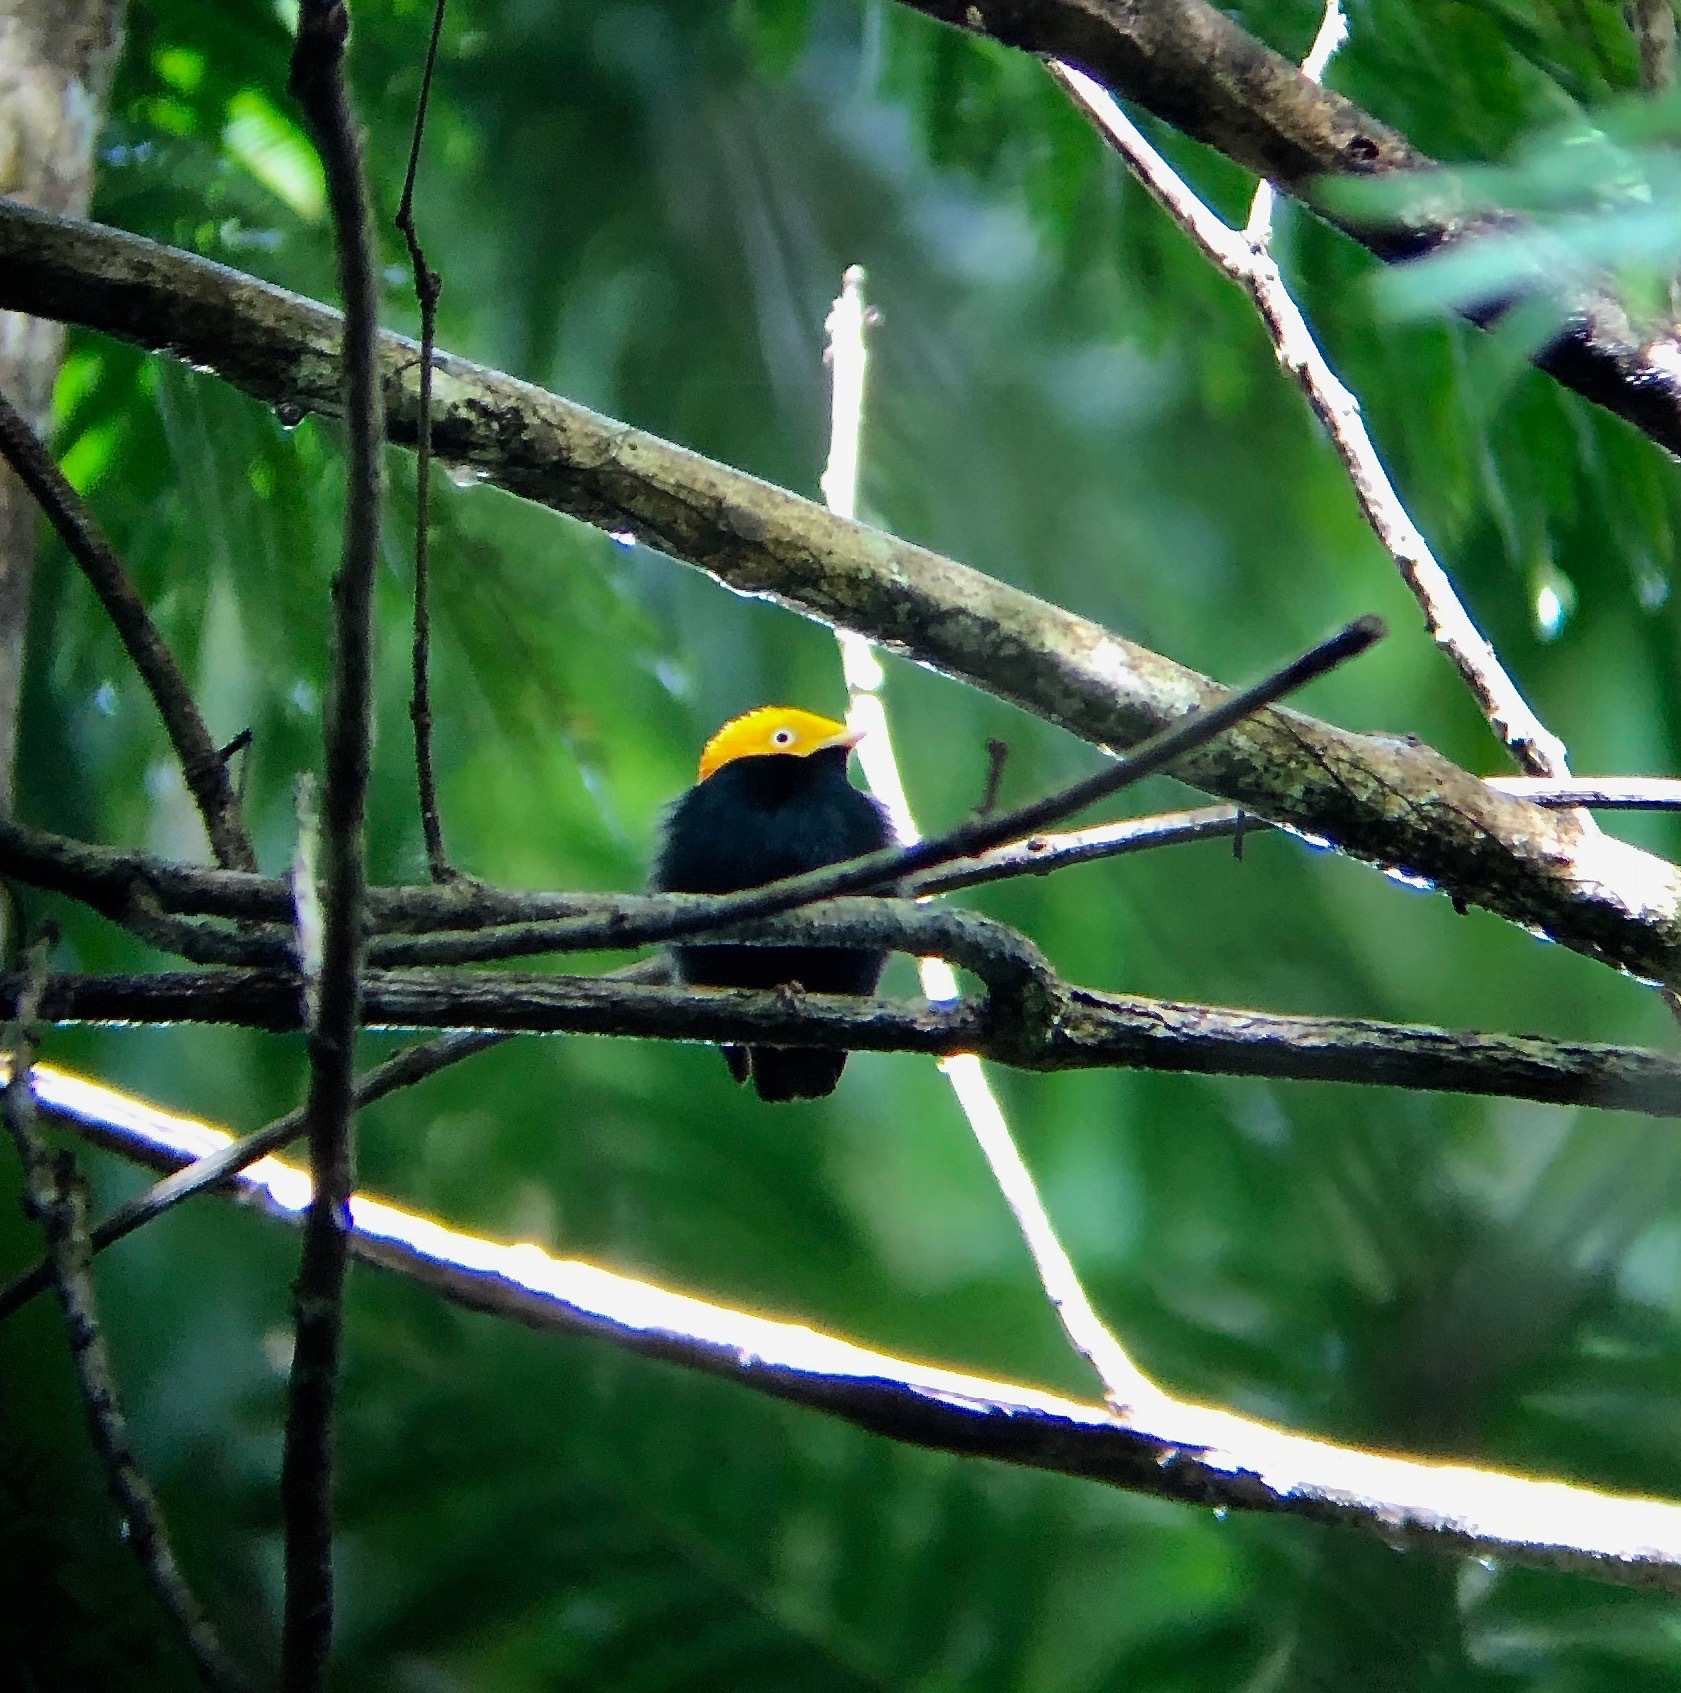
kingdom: Animalia
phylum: Chordata
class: Aves
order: Passeriformes
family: Pipridae
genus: Pipra
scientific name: Pipra erythrocephala
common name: Golden-headed manakin
